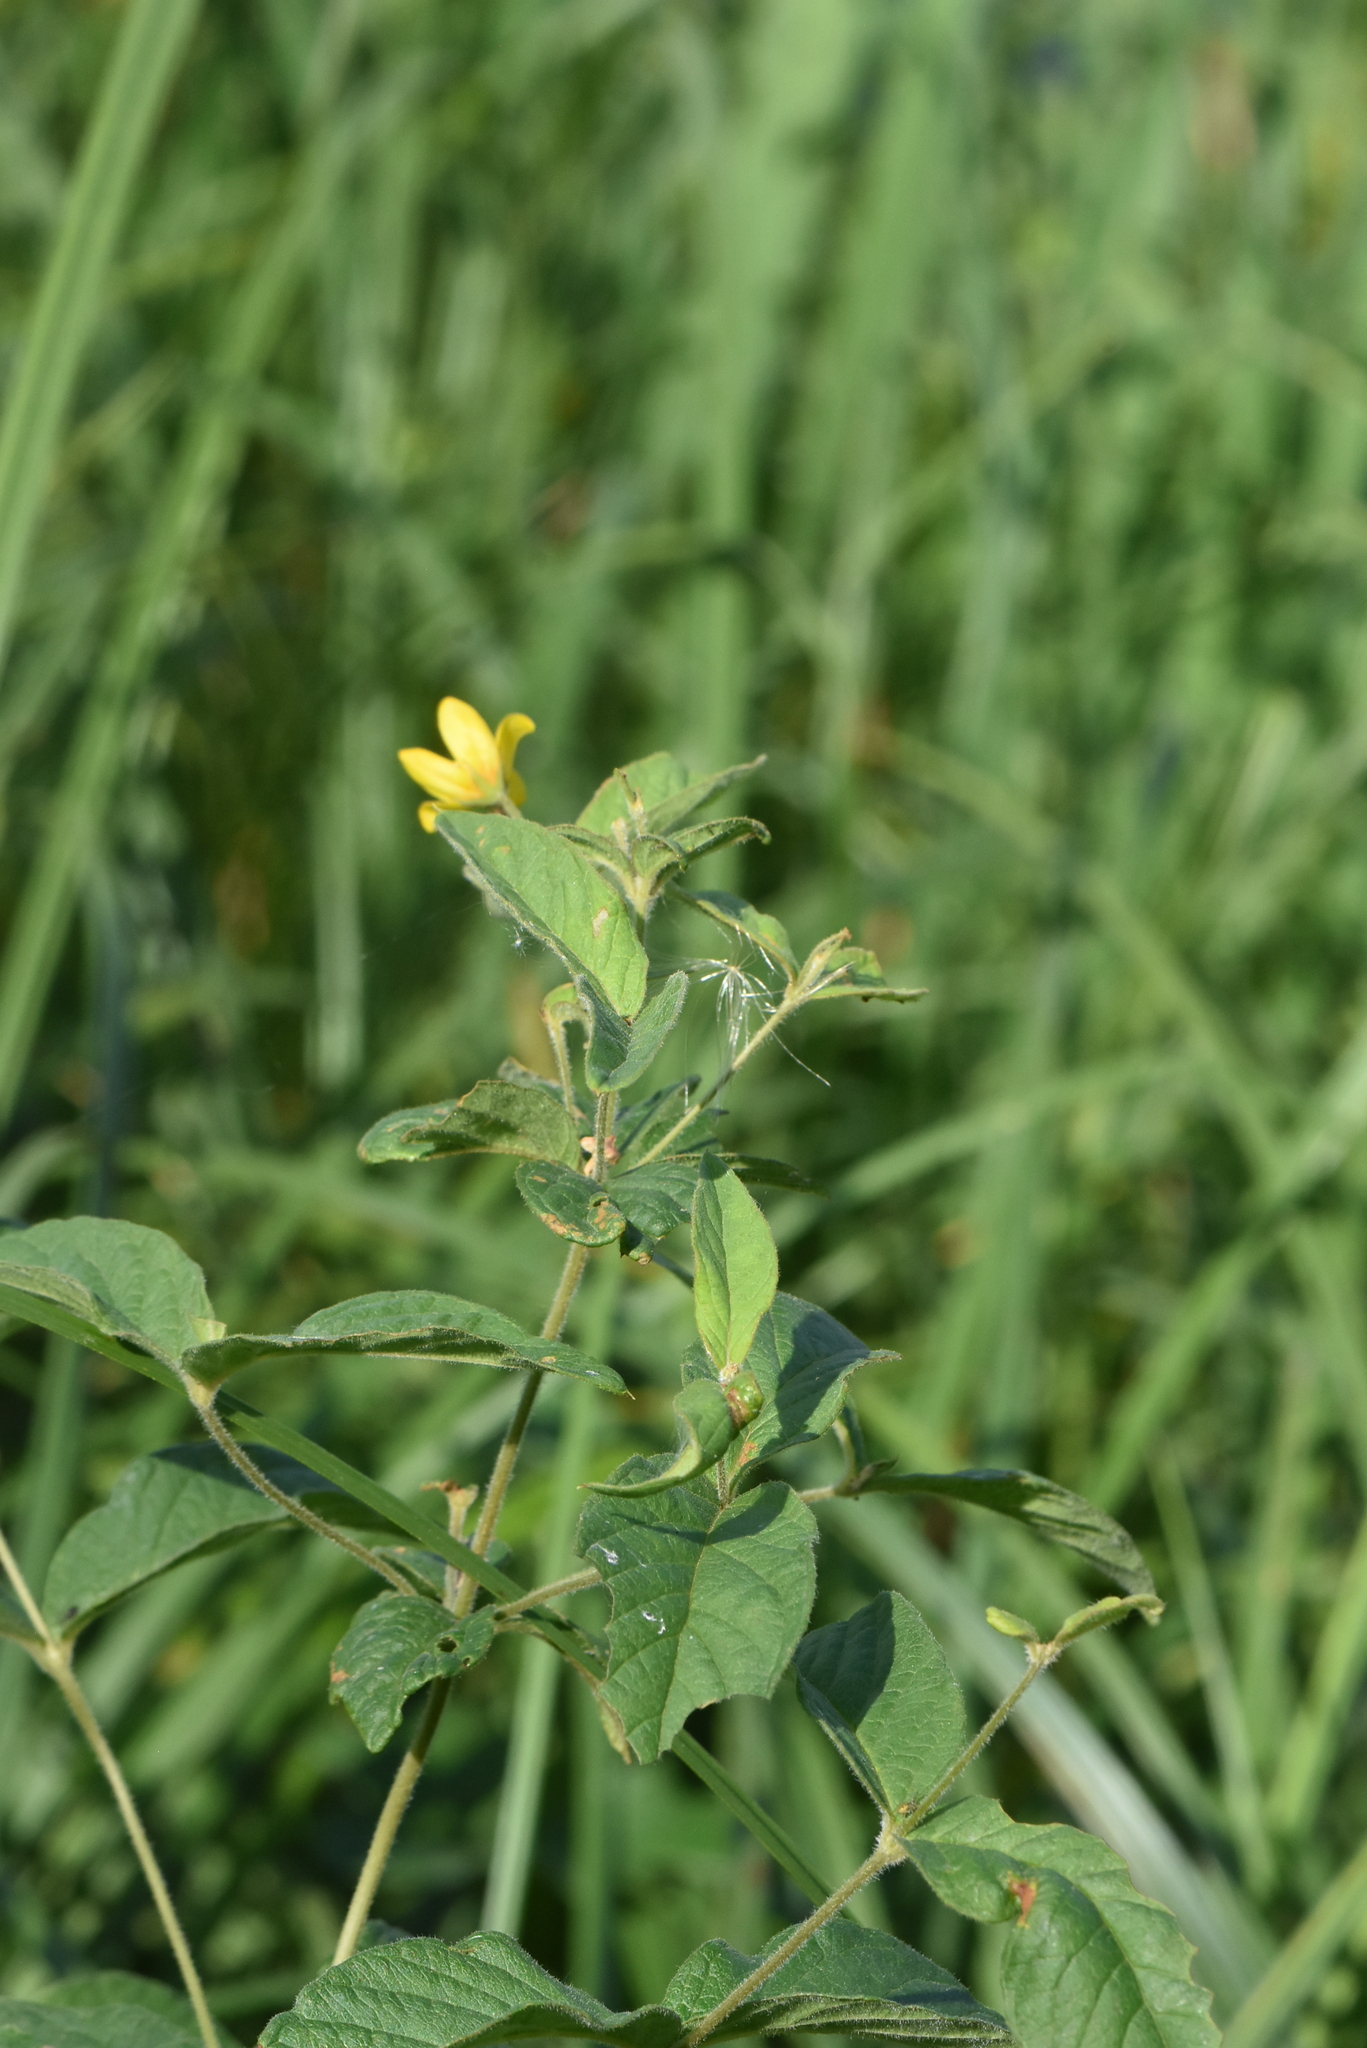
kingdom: Plantae
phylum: Tracheophyta
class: Magnoliopsida
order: Ericales
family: Primulaceae
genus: Lysimachia
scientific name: Lysimachia vulgaris
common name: Yellow loosestrife
